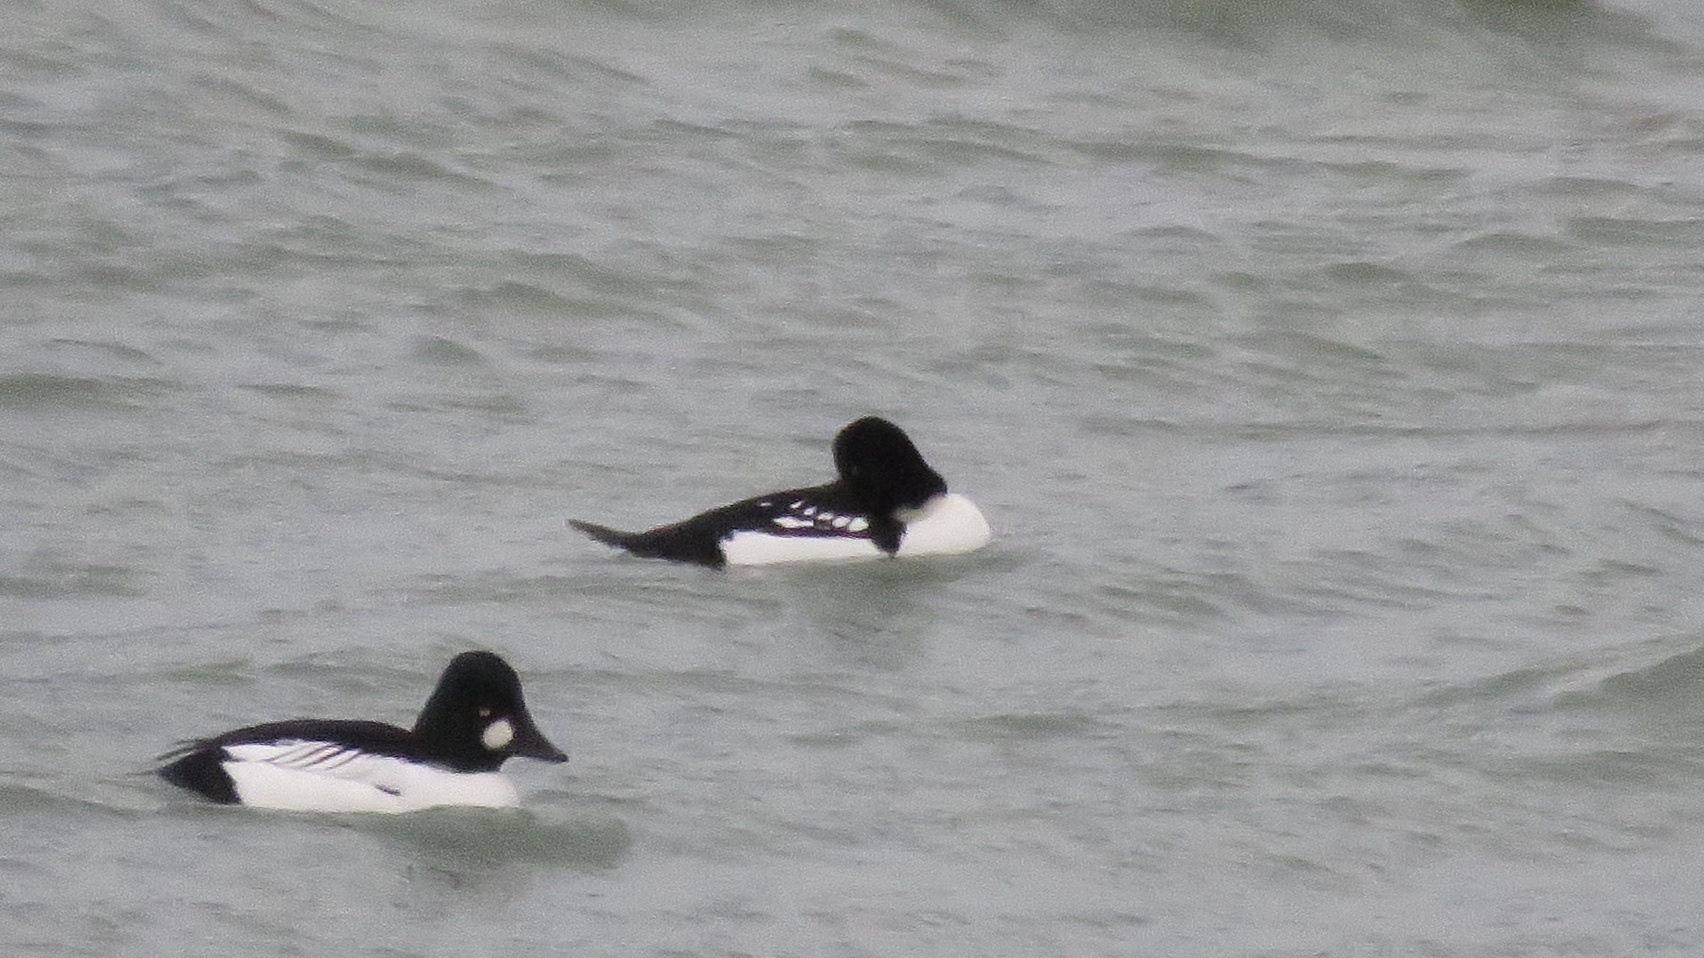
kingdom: Animalia
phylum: Chordata
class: Aves
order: Anseriformes
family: Anatidae
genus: Bucephala
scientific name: Bucephala islandica
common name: Barrow's goldeneye
